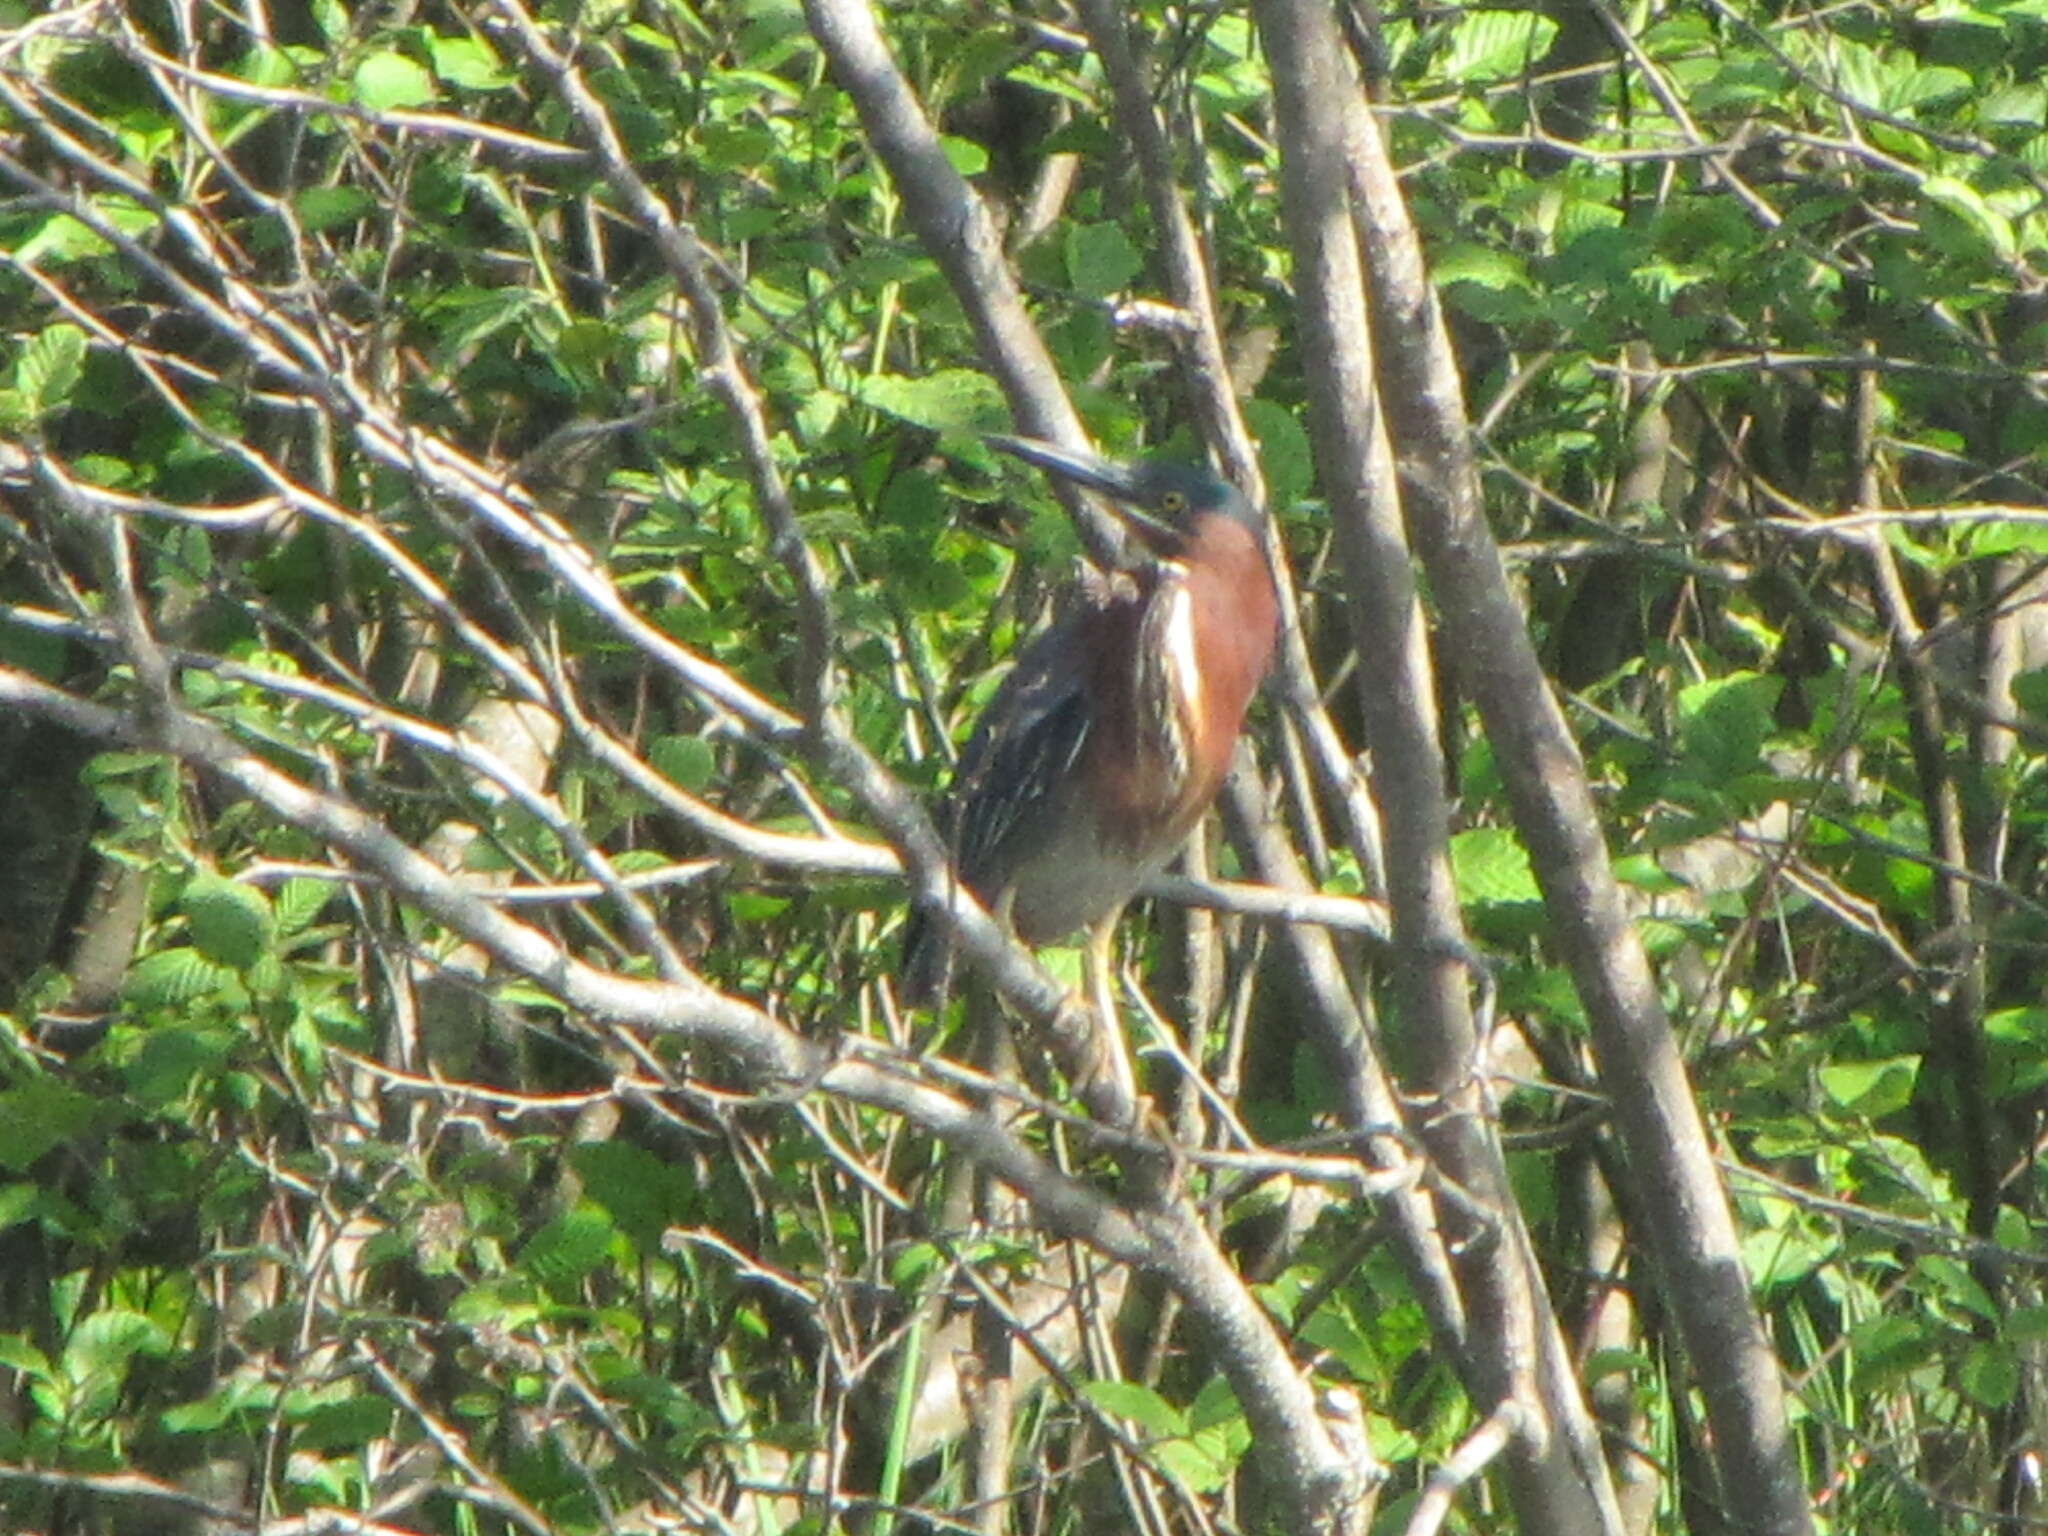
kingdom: Animalia
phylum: Chordata
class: Aves
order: Pelecaniformes
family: Ardeidae
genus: Butorides
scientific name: Butorides virescens
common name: Green heron
